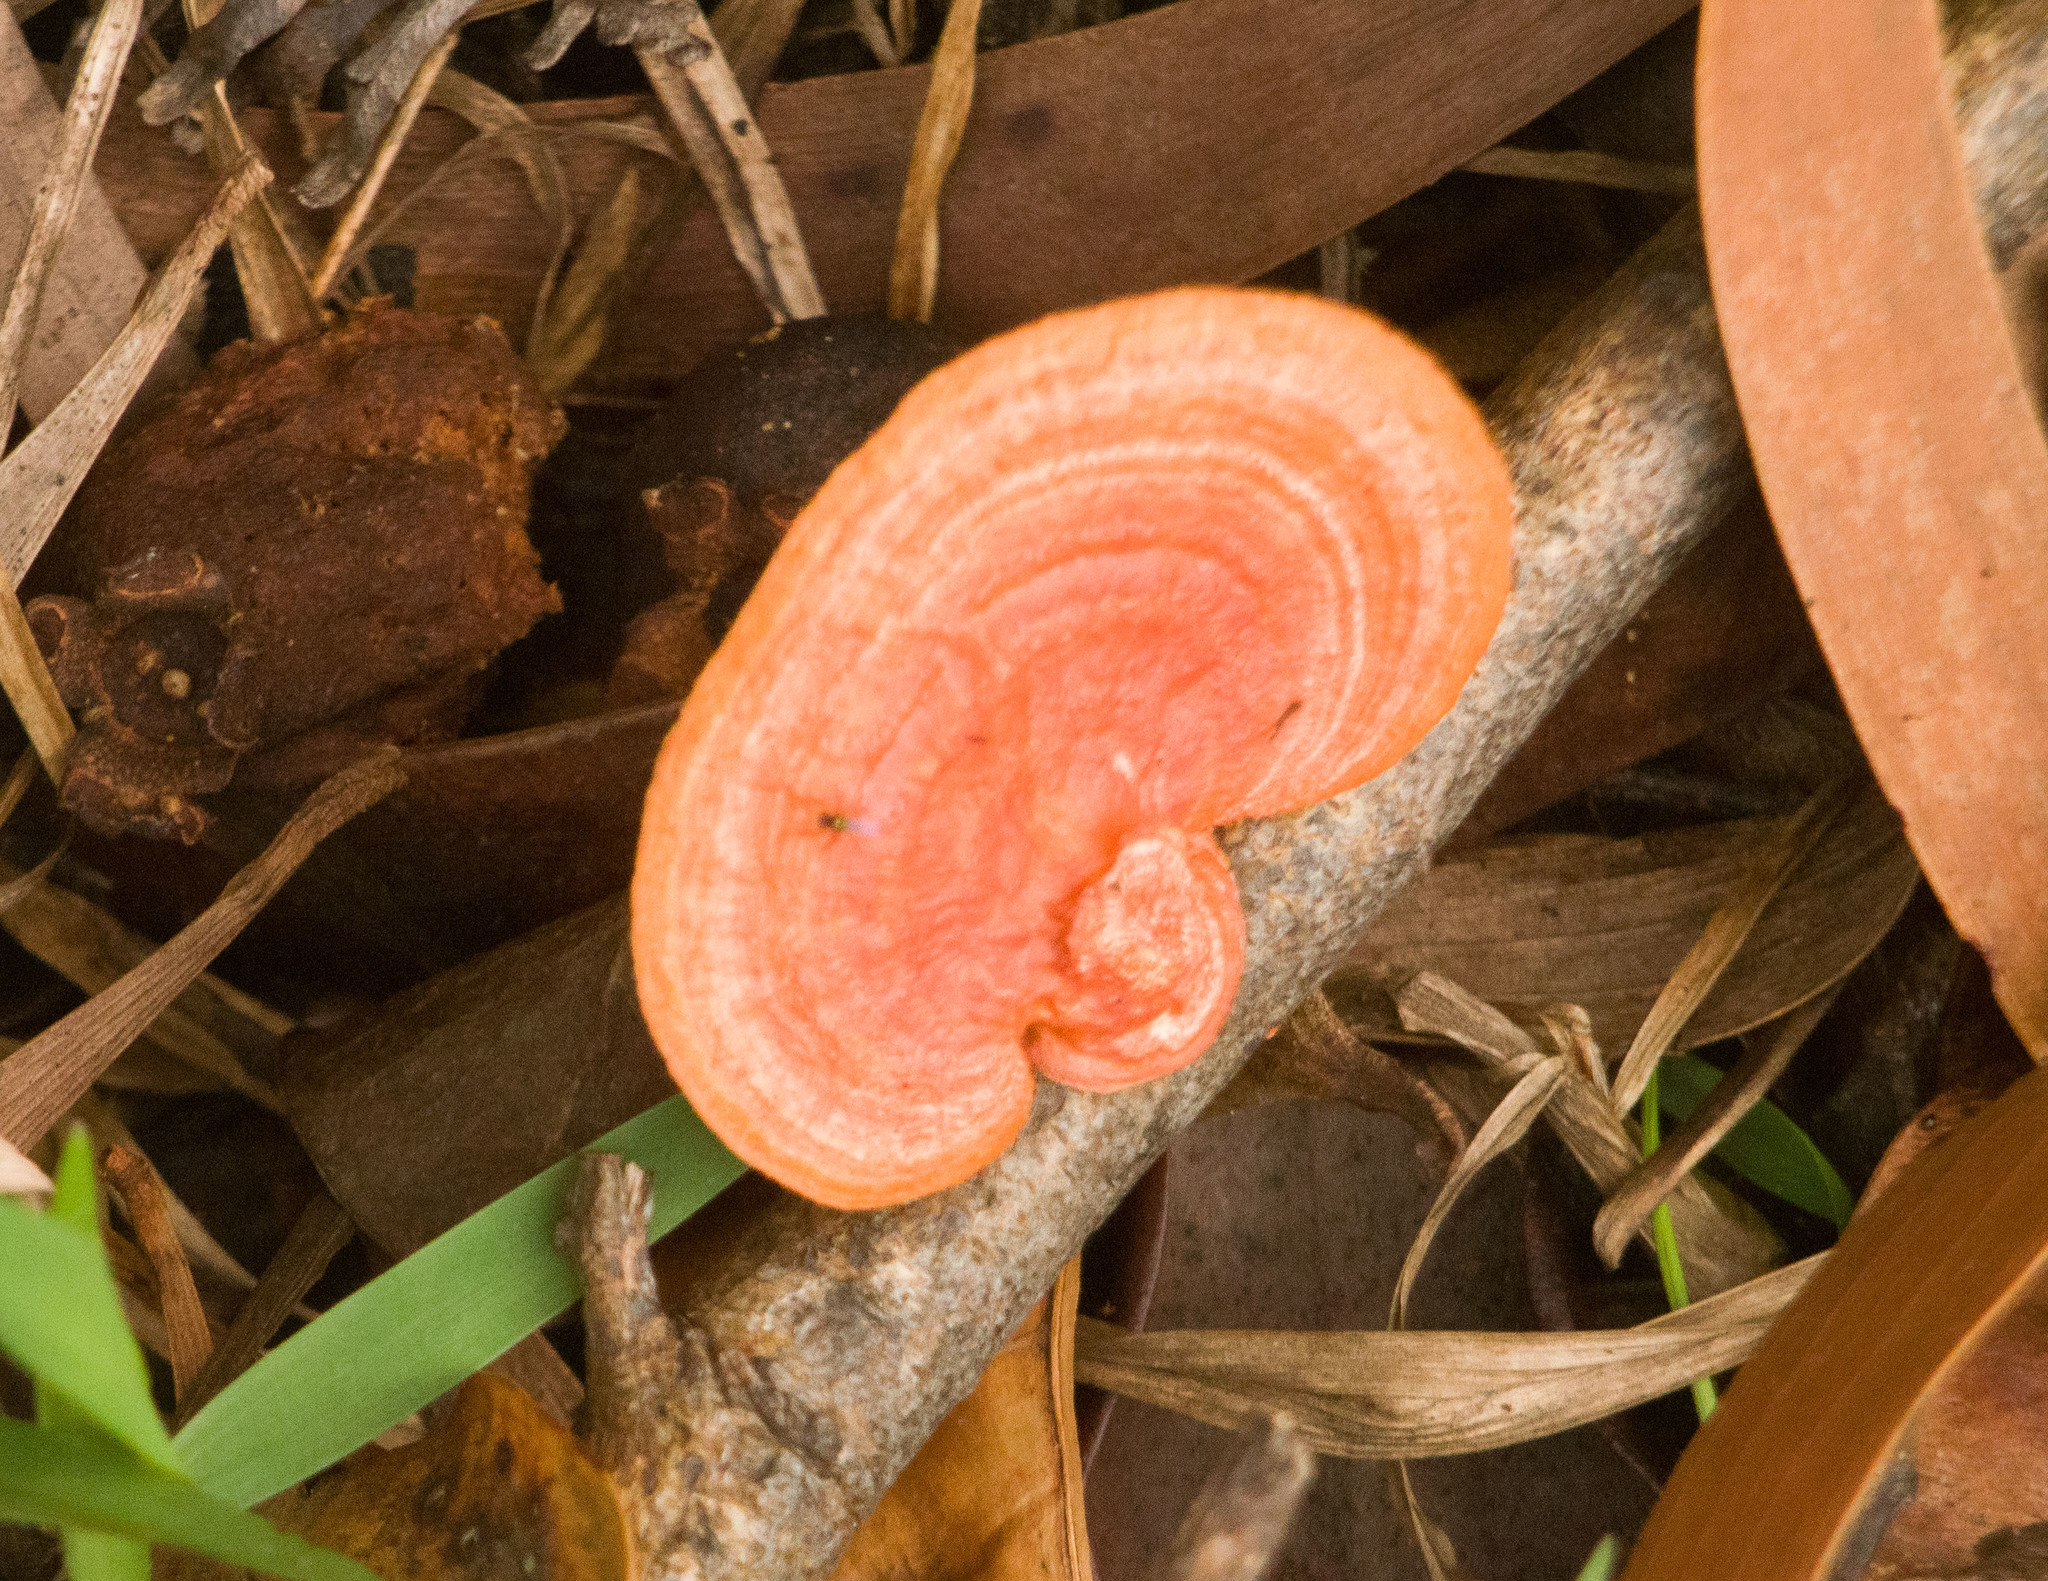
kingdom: Fungi
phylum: Basidiomycota
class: Agaricomycetes
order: Polyporales
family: Polyporaceae
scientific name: Polyporaceae
